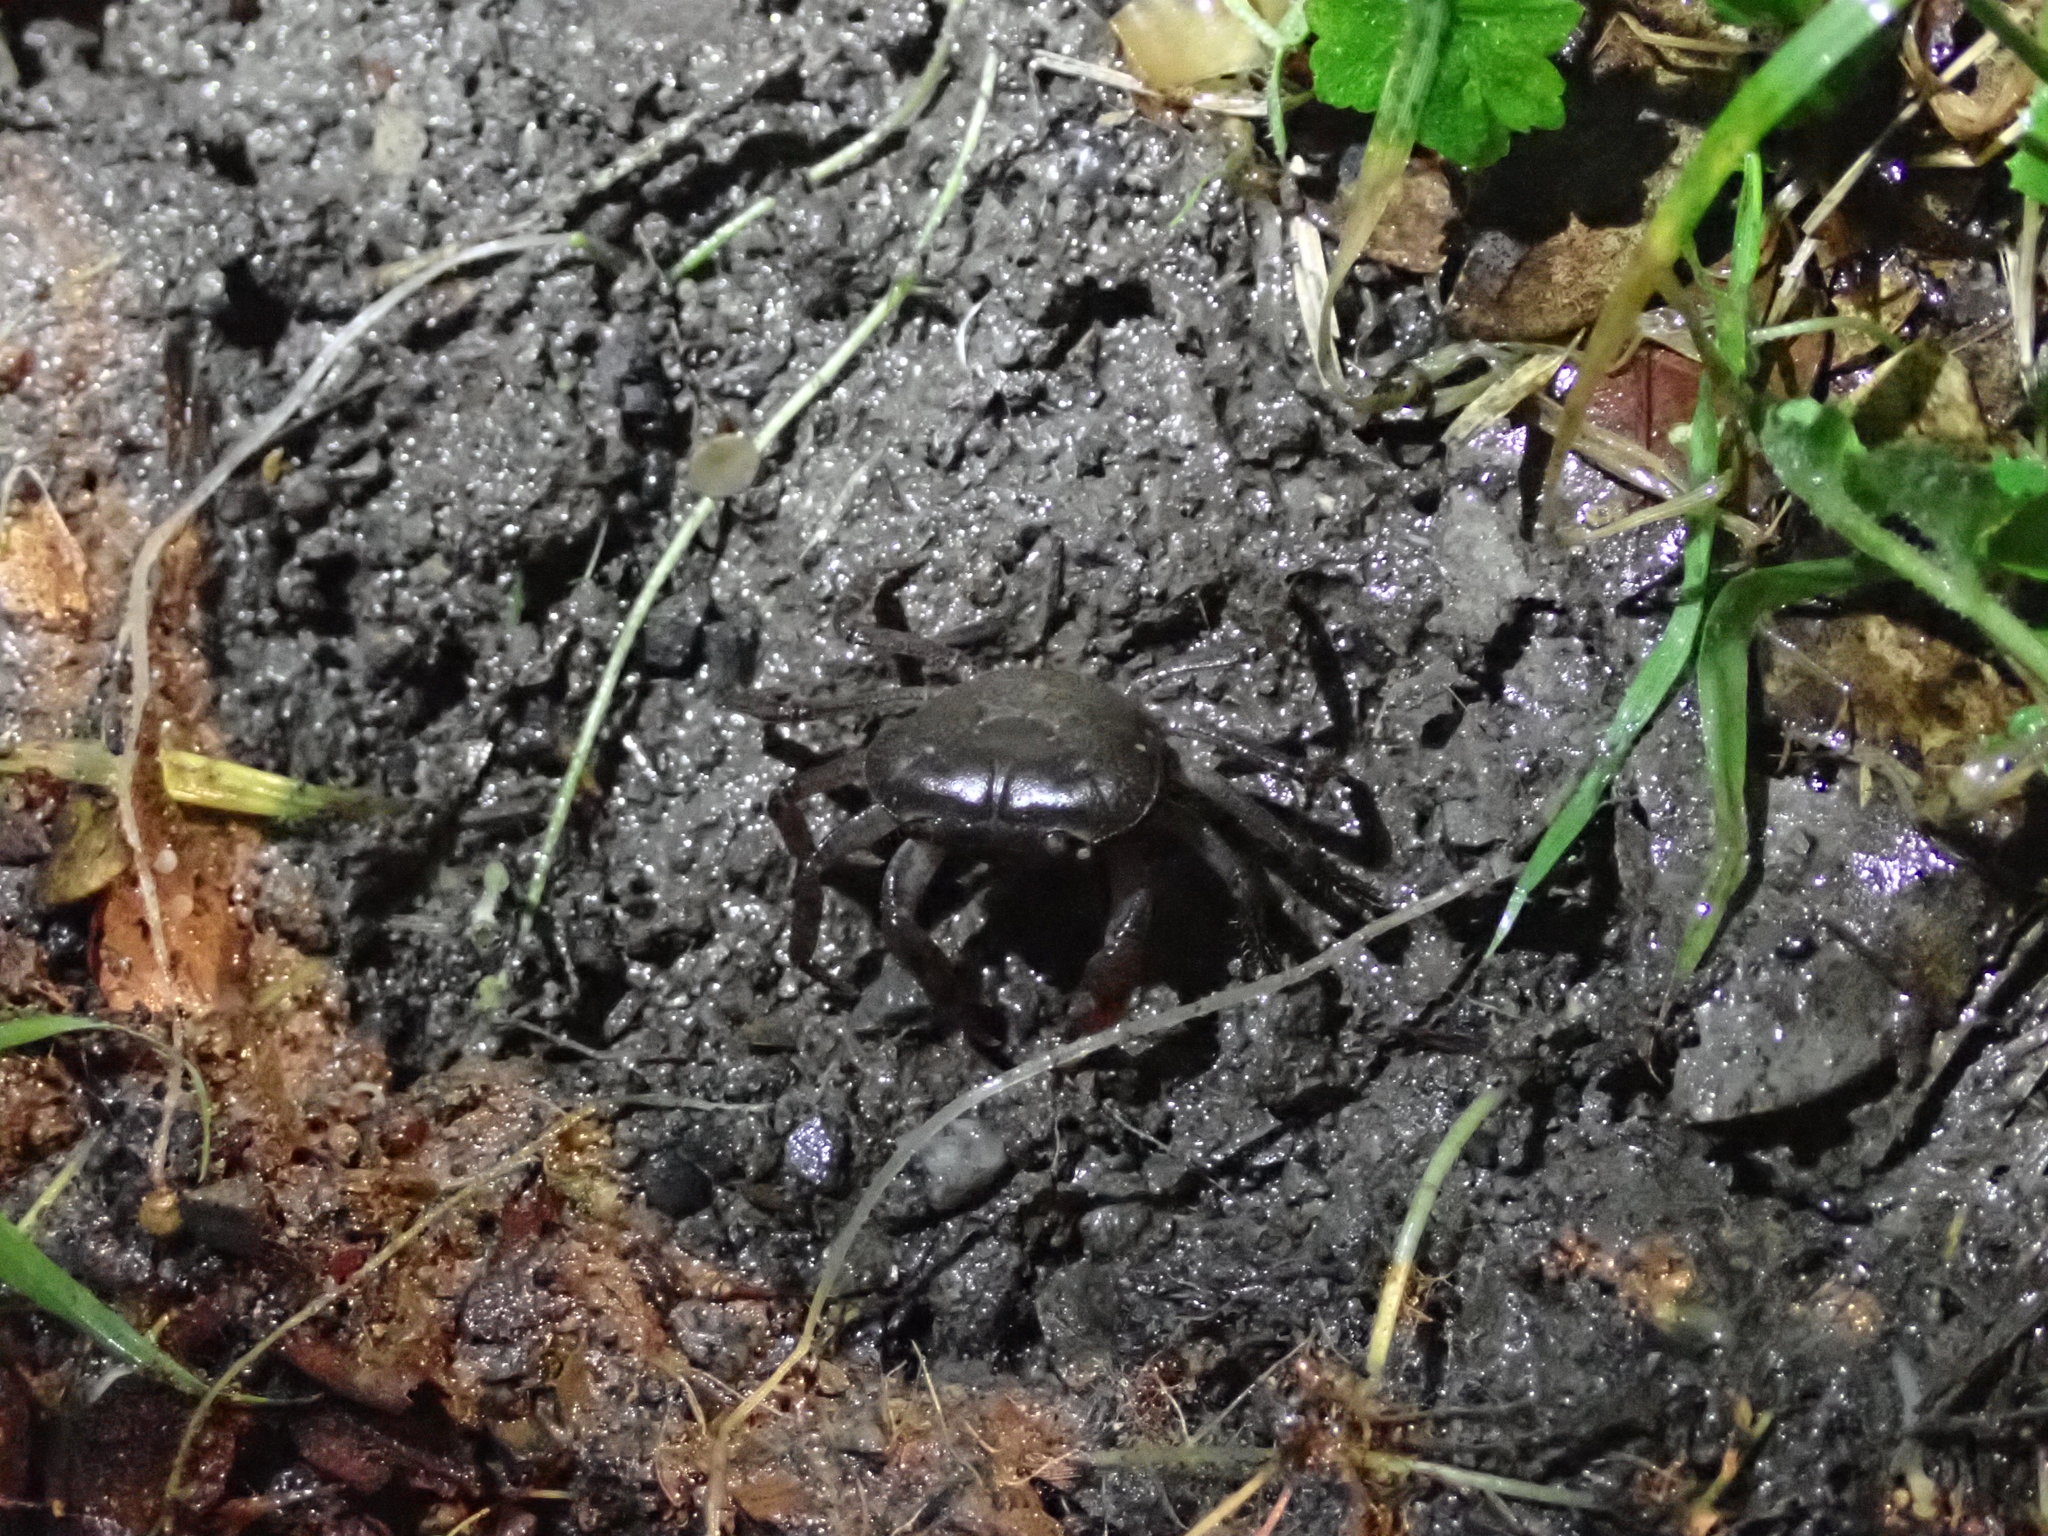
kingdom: Animalia
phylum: Arthropoda
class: Malacostraca
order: Decapoda
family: Potamidae
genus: Geothelphusa
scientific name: Geothelphusa takuan
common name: Ze concept of crab
